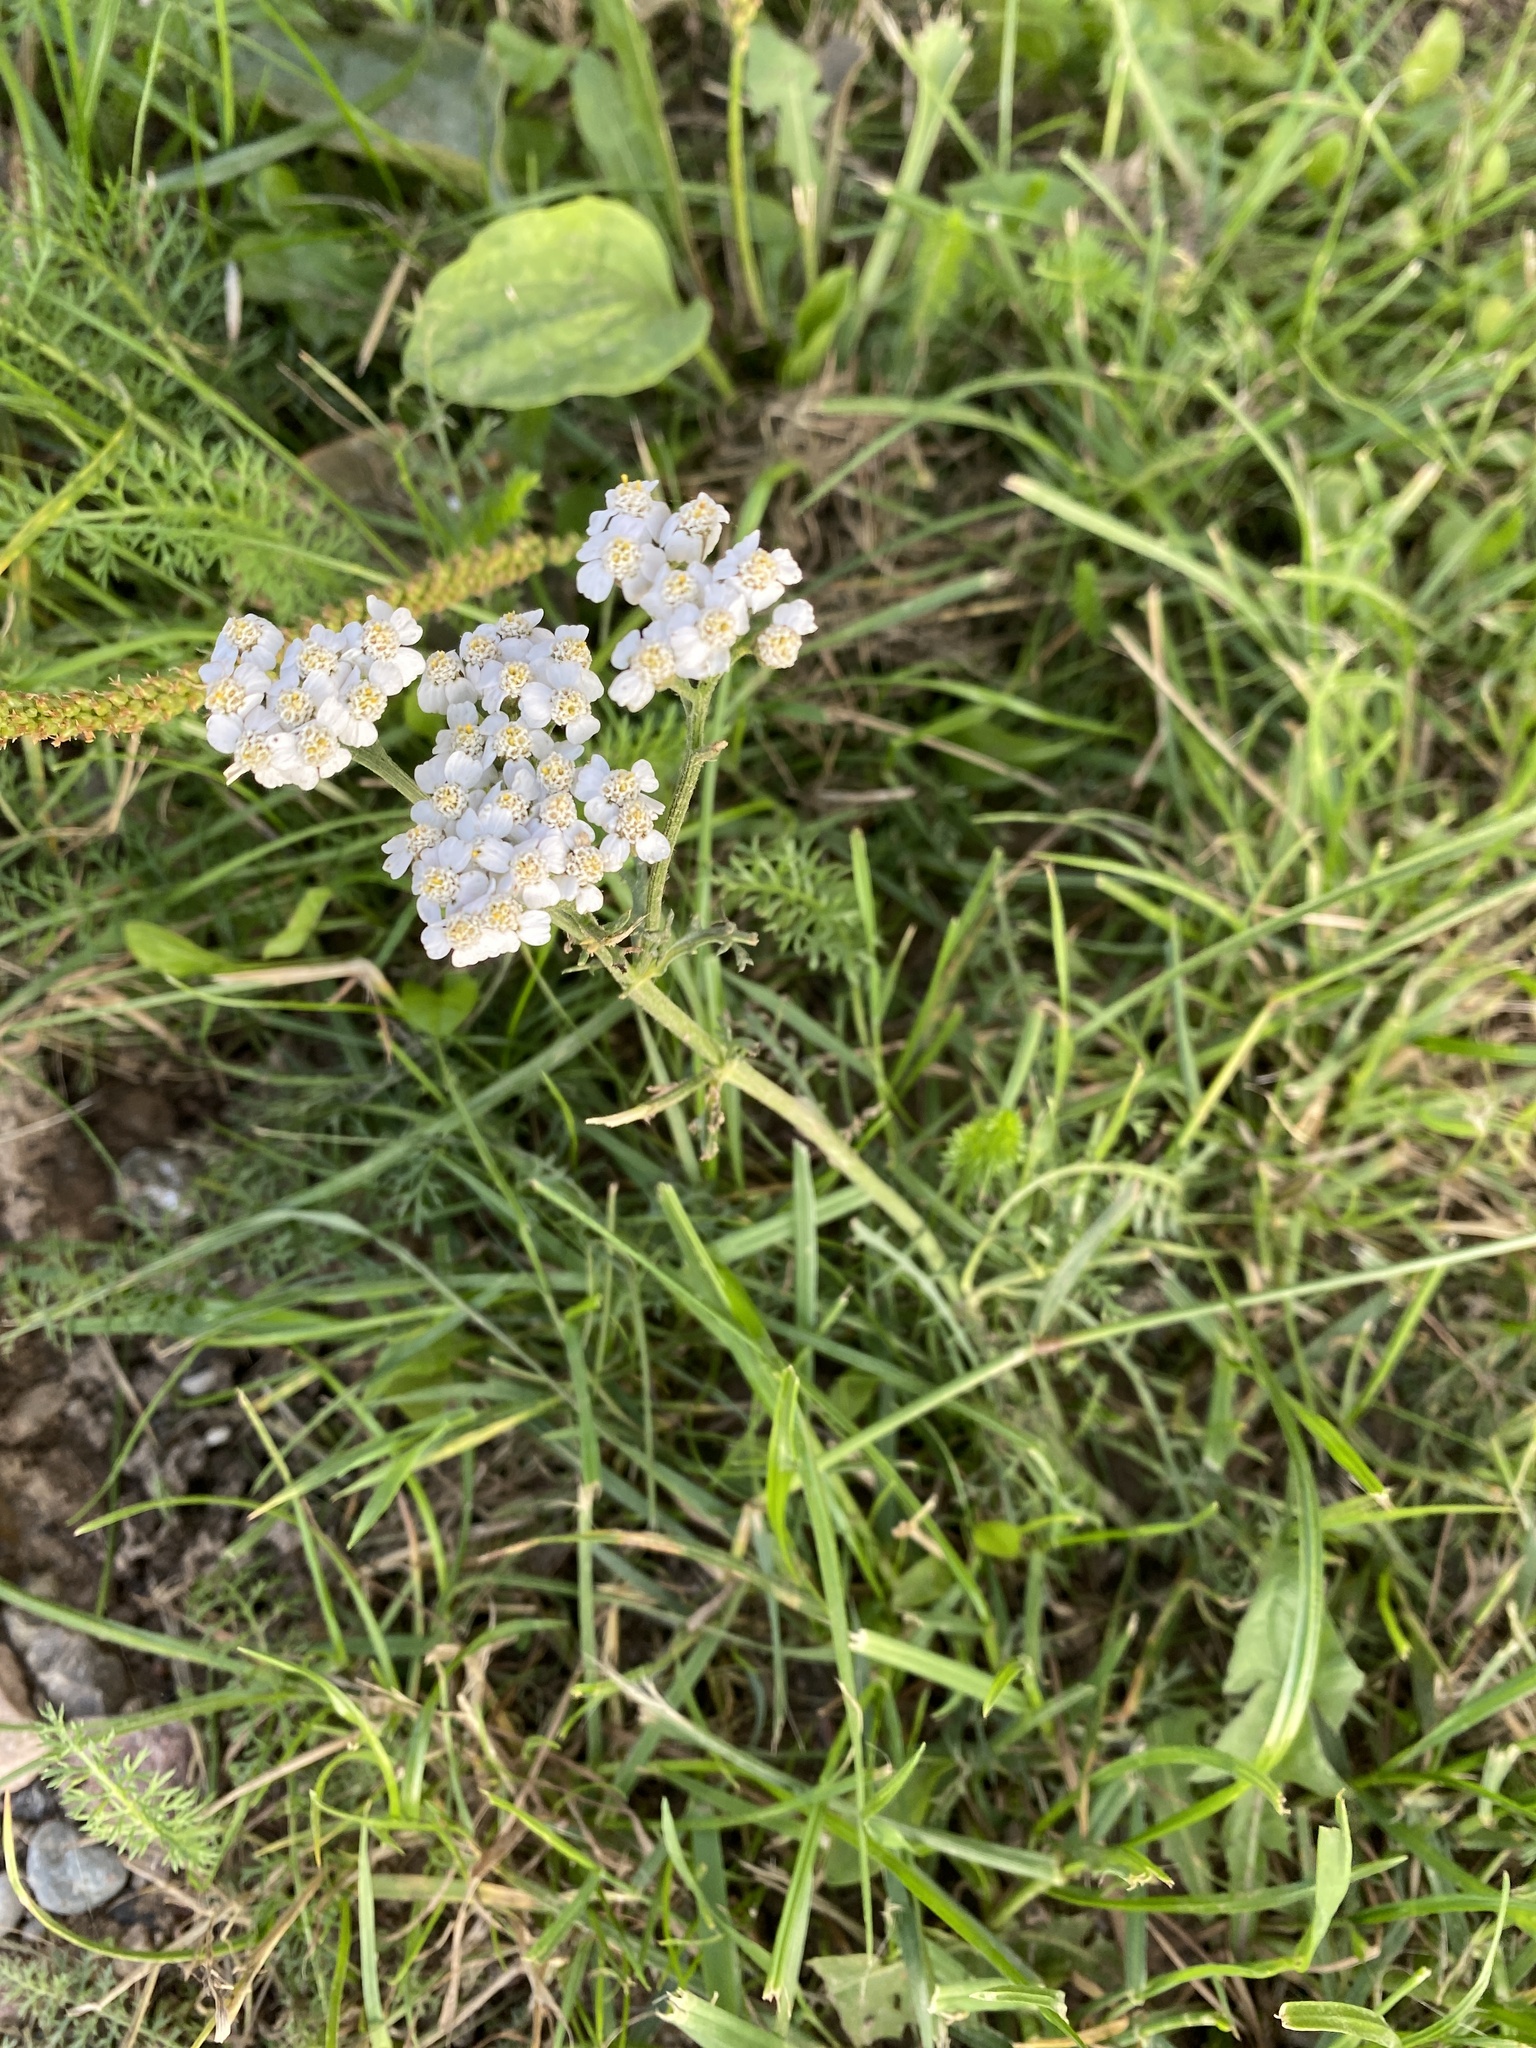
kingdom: Plantae
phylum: Tracheophyta
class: Magnoliopsida
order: Asterales
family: Asteraceae
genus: Achillea
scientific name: Achillea millefolium
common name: Yarrow
